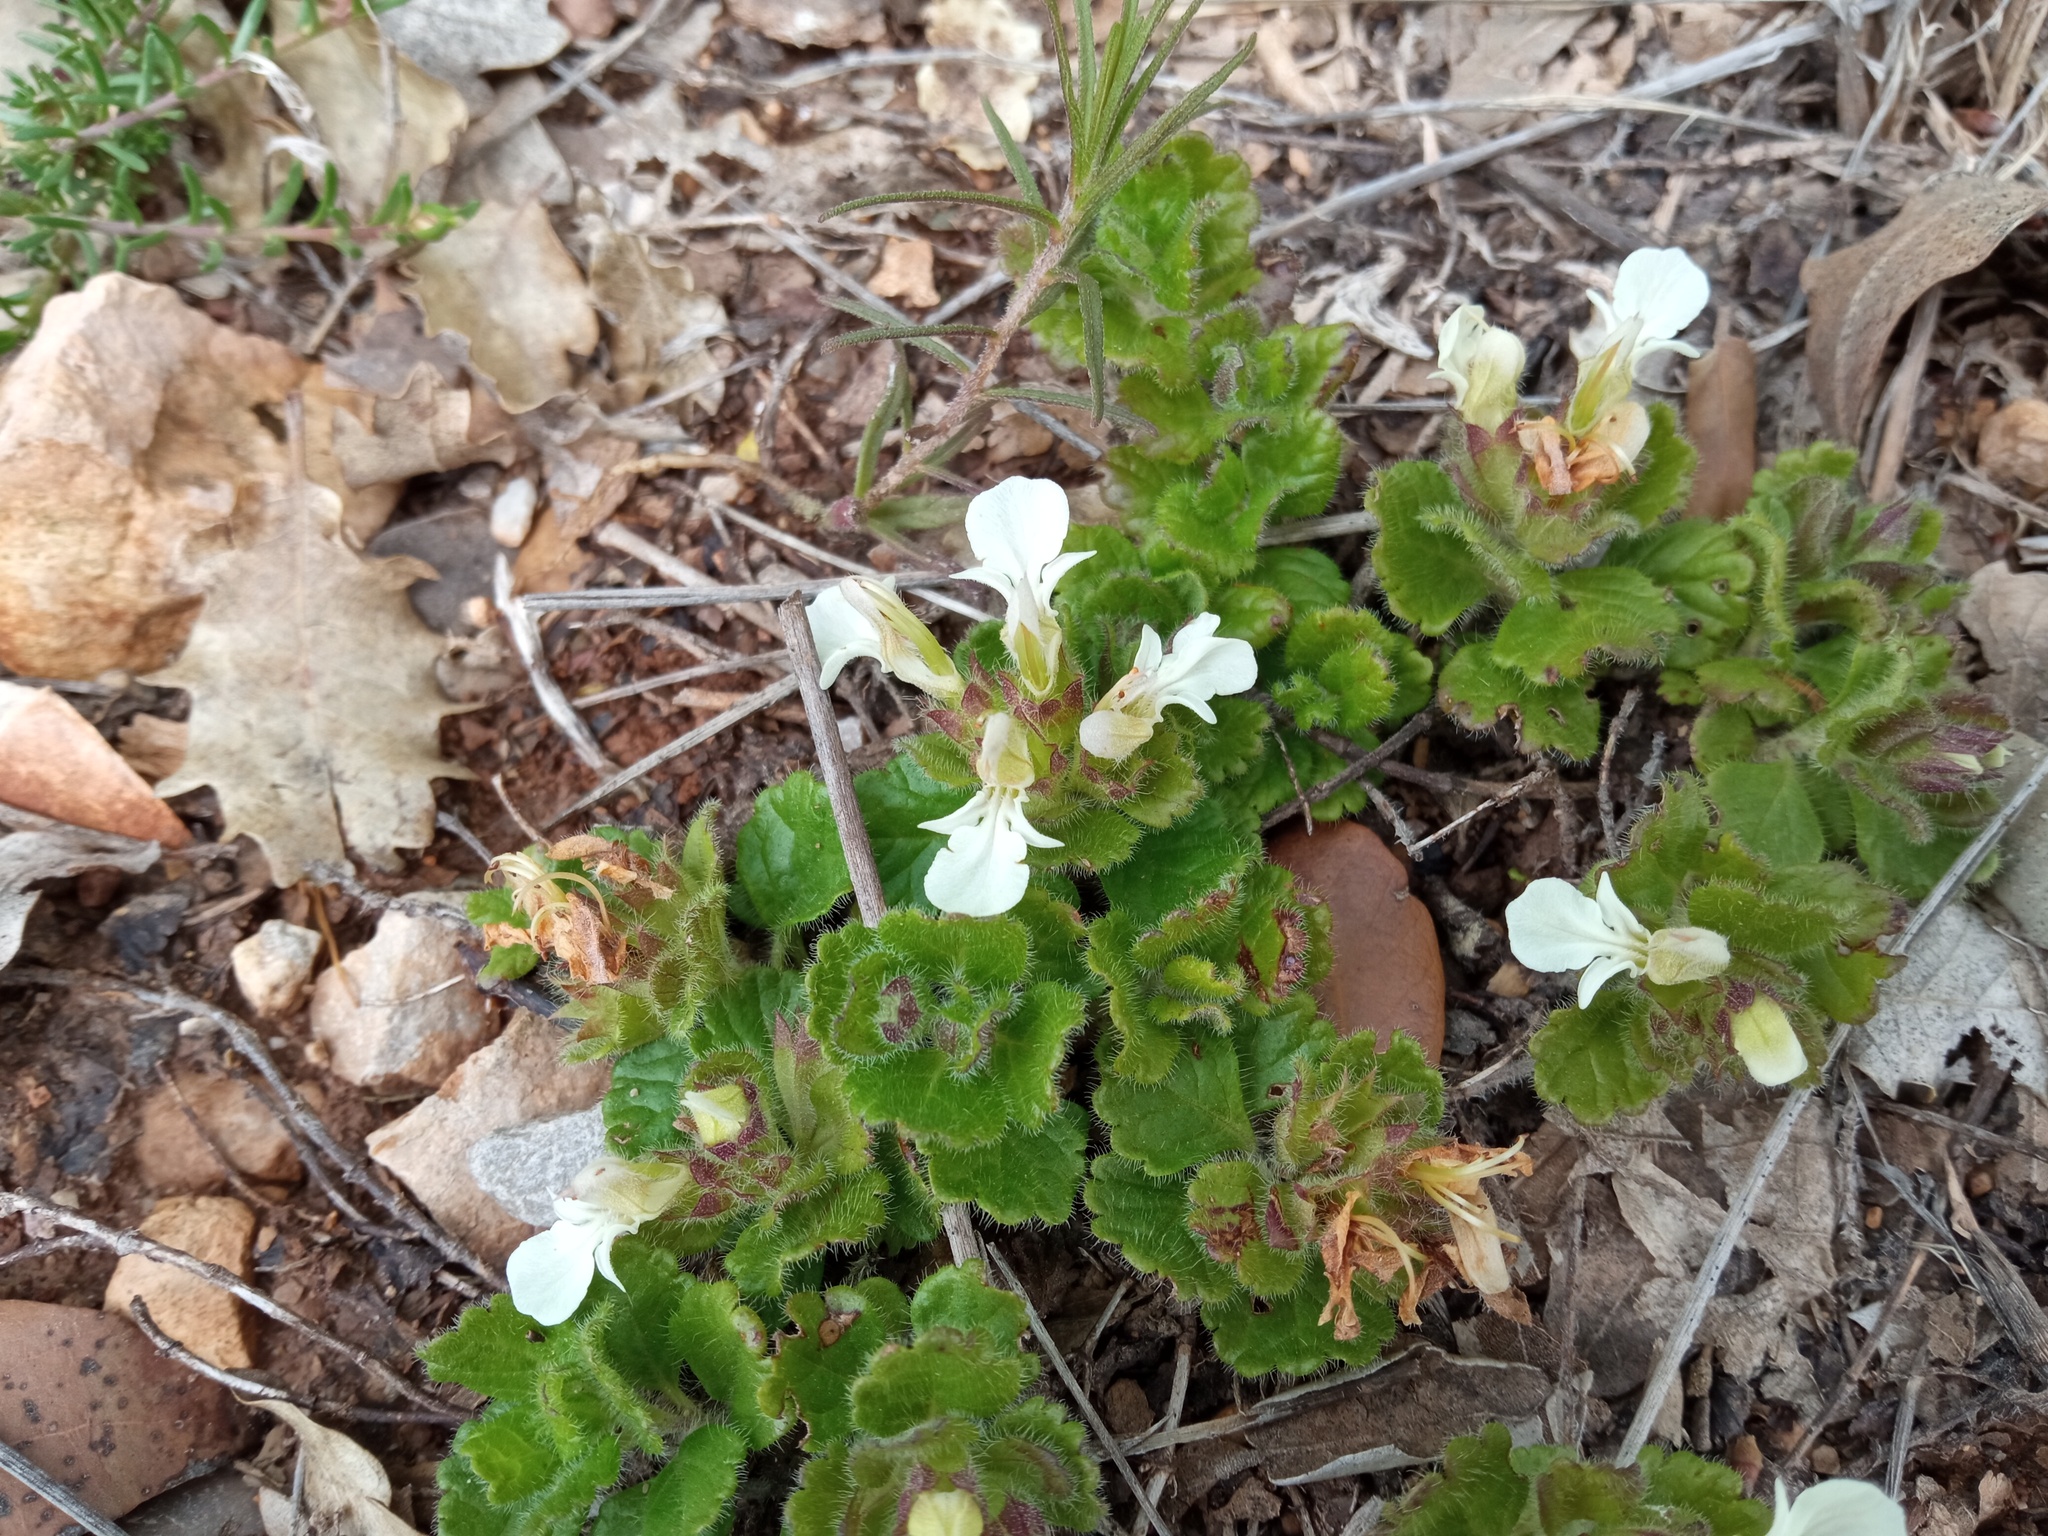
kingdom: Plantae
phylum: Tracheophyta
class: Magnoliopsida
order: Lamiales
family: Lamiaceae
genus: Teucrium
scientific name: Teucrium pyrenaicum
